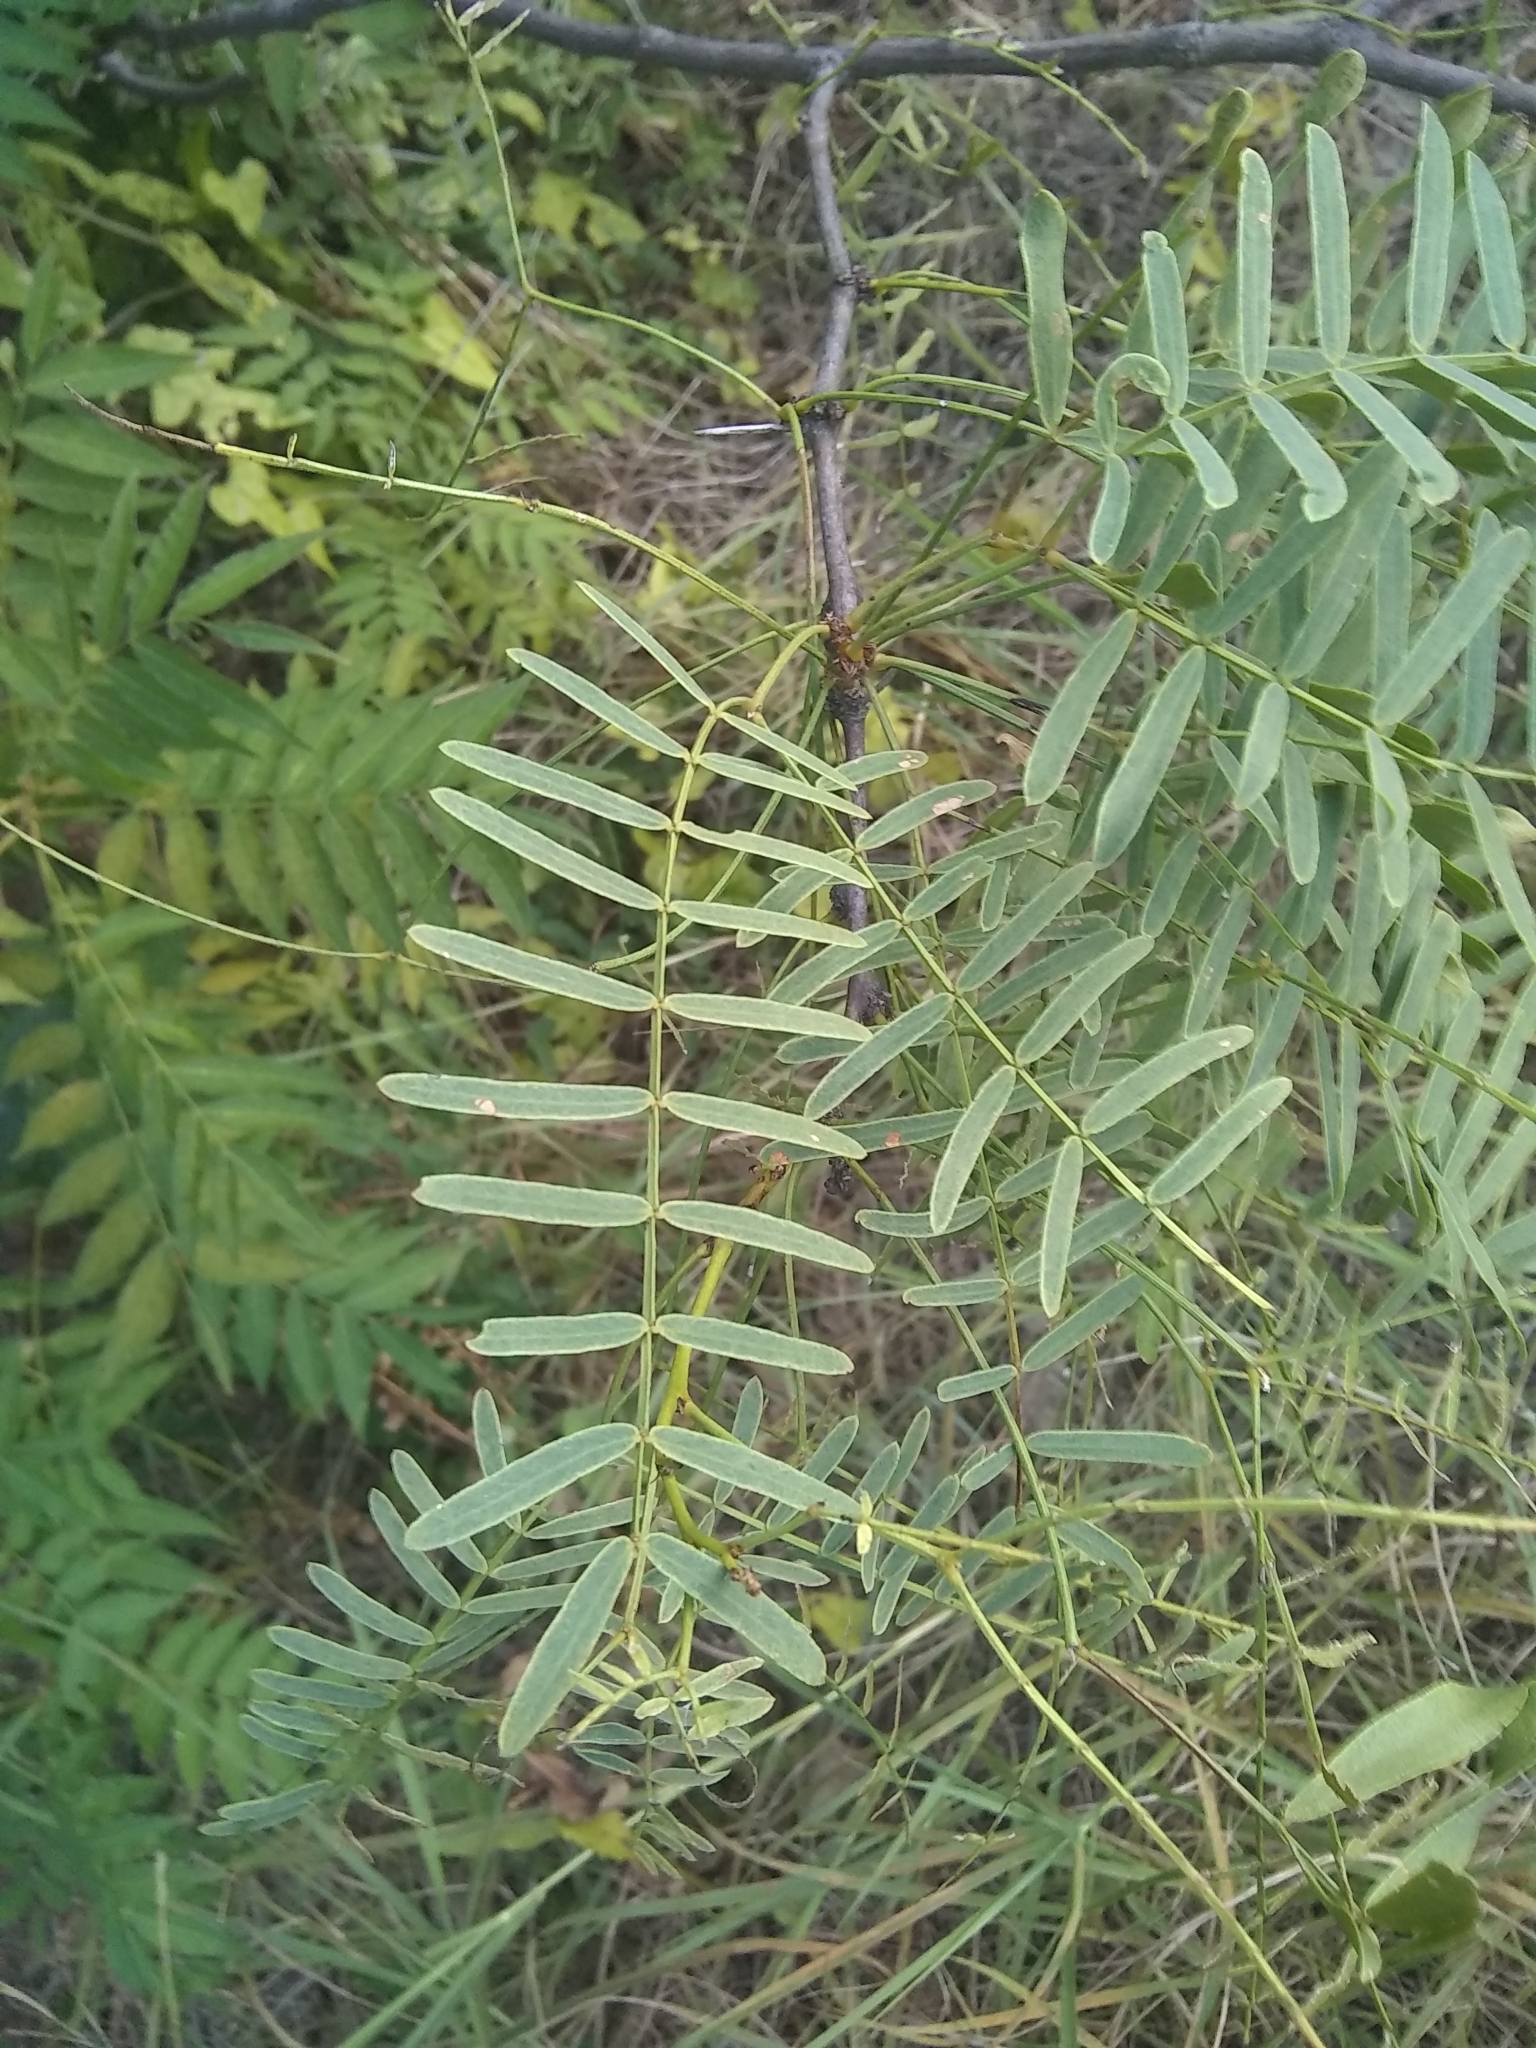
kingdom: Plantae
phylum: Tracheophyta
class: Magnoliopsida
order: Fabales
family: Fabaceae
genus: Prosopis
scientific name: Prosopis glandulosa
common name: Honey mesquite
